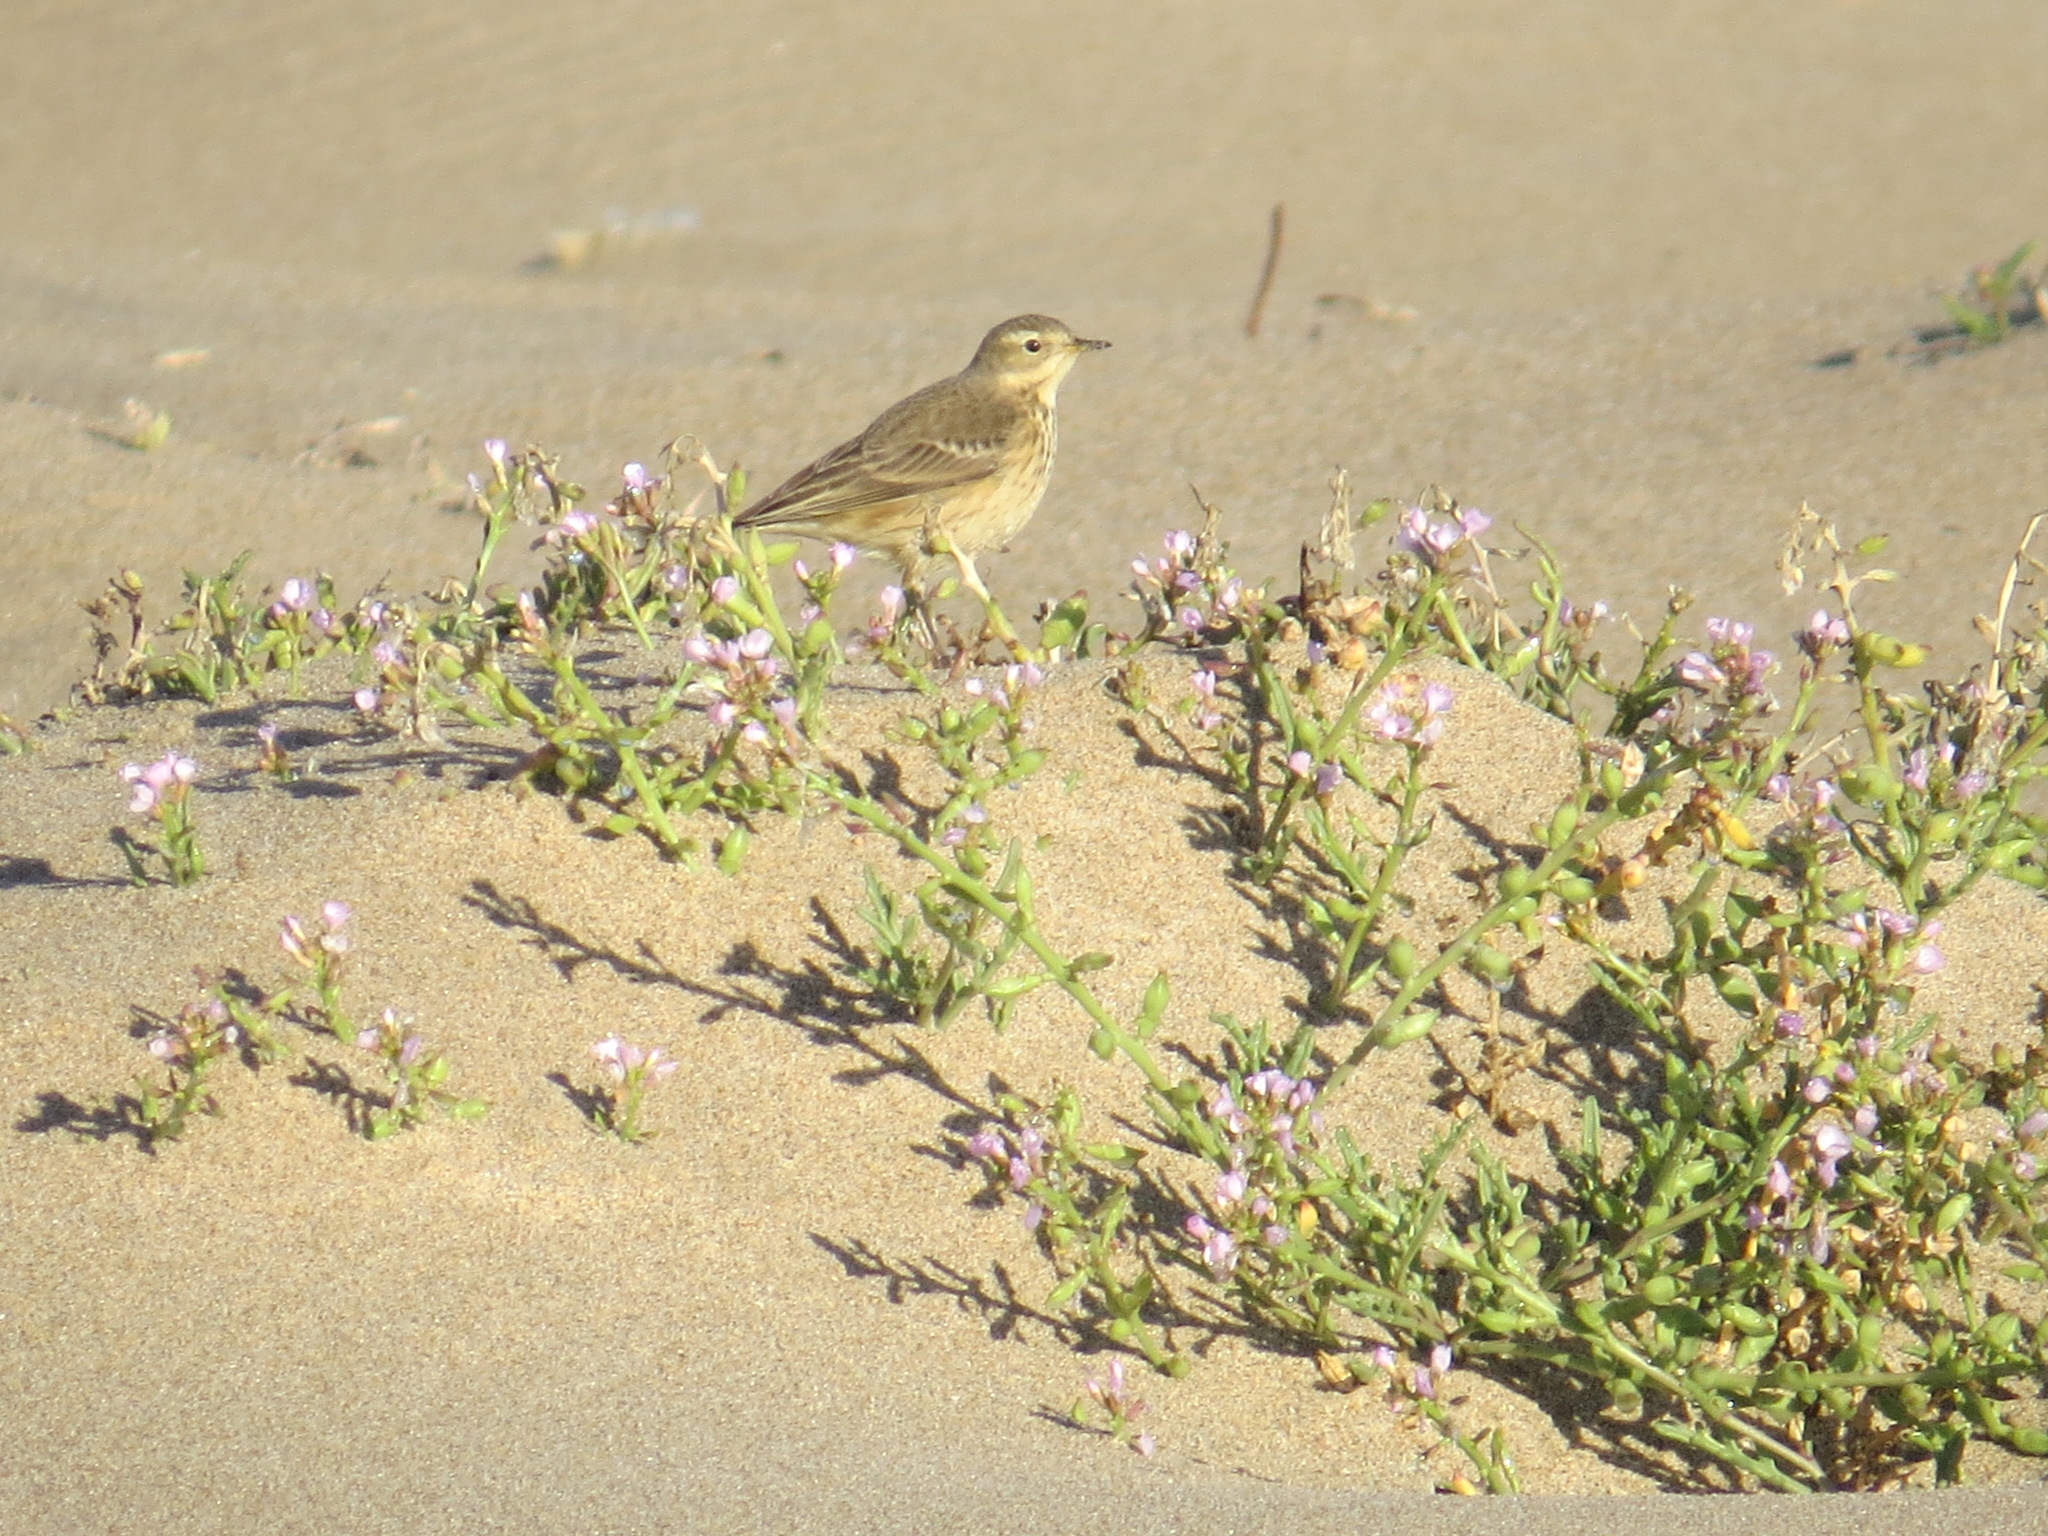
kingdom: Animalia
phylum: Chordata
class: Aves
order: Passeriformes
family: Motacillidae
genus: Anthus
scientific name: Anthus rubescens
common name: Buff-bellied pipit
